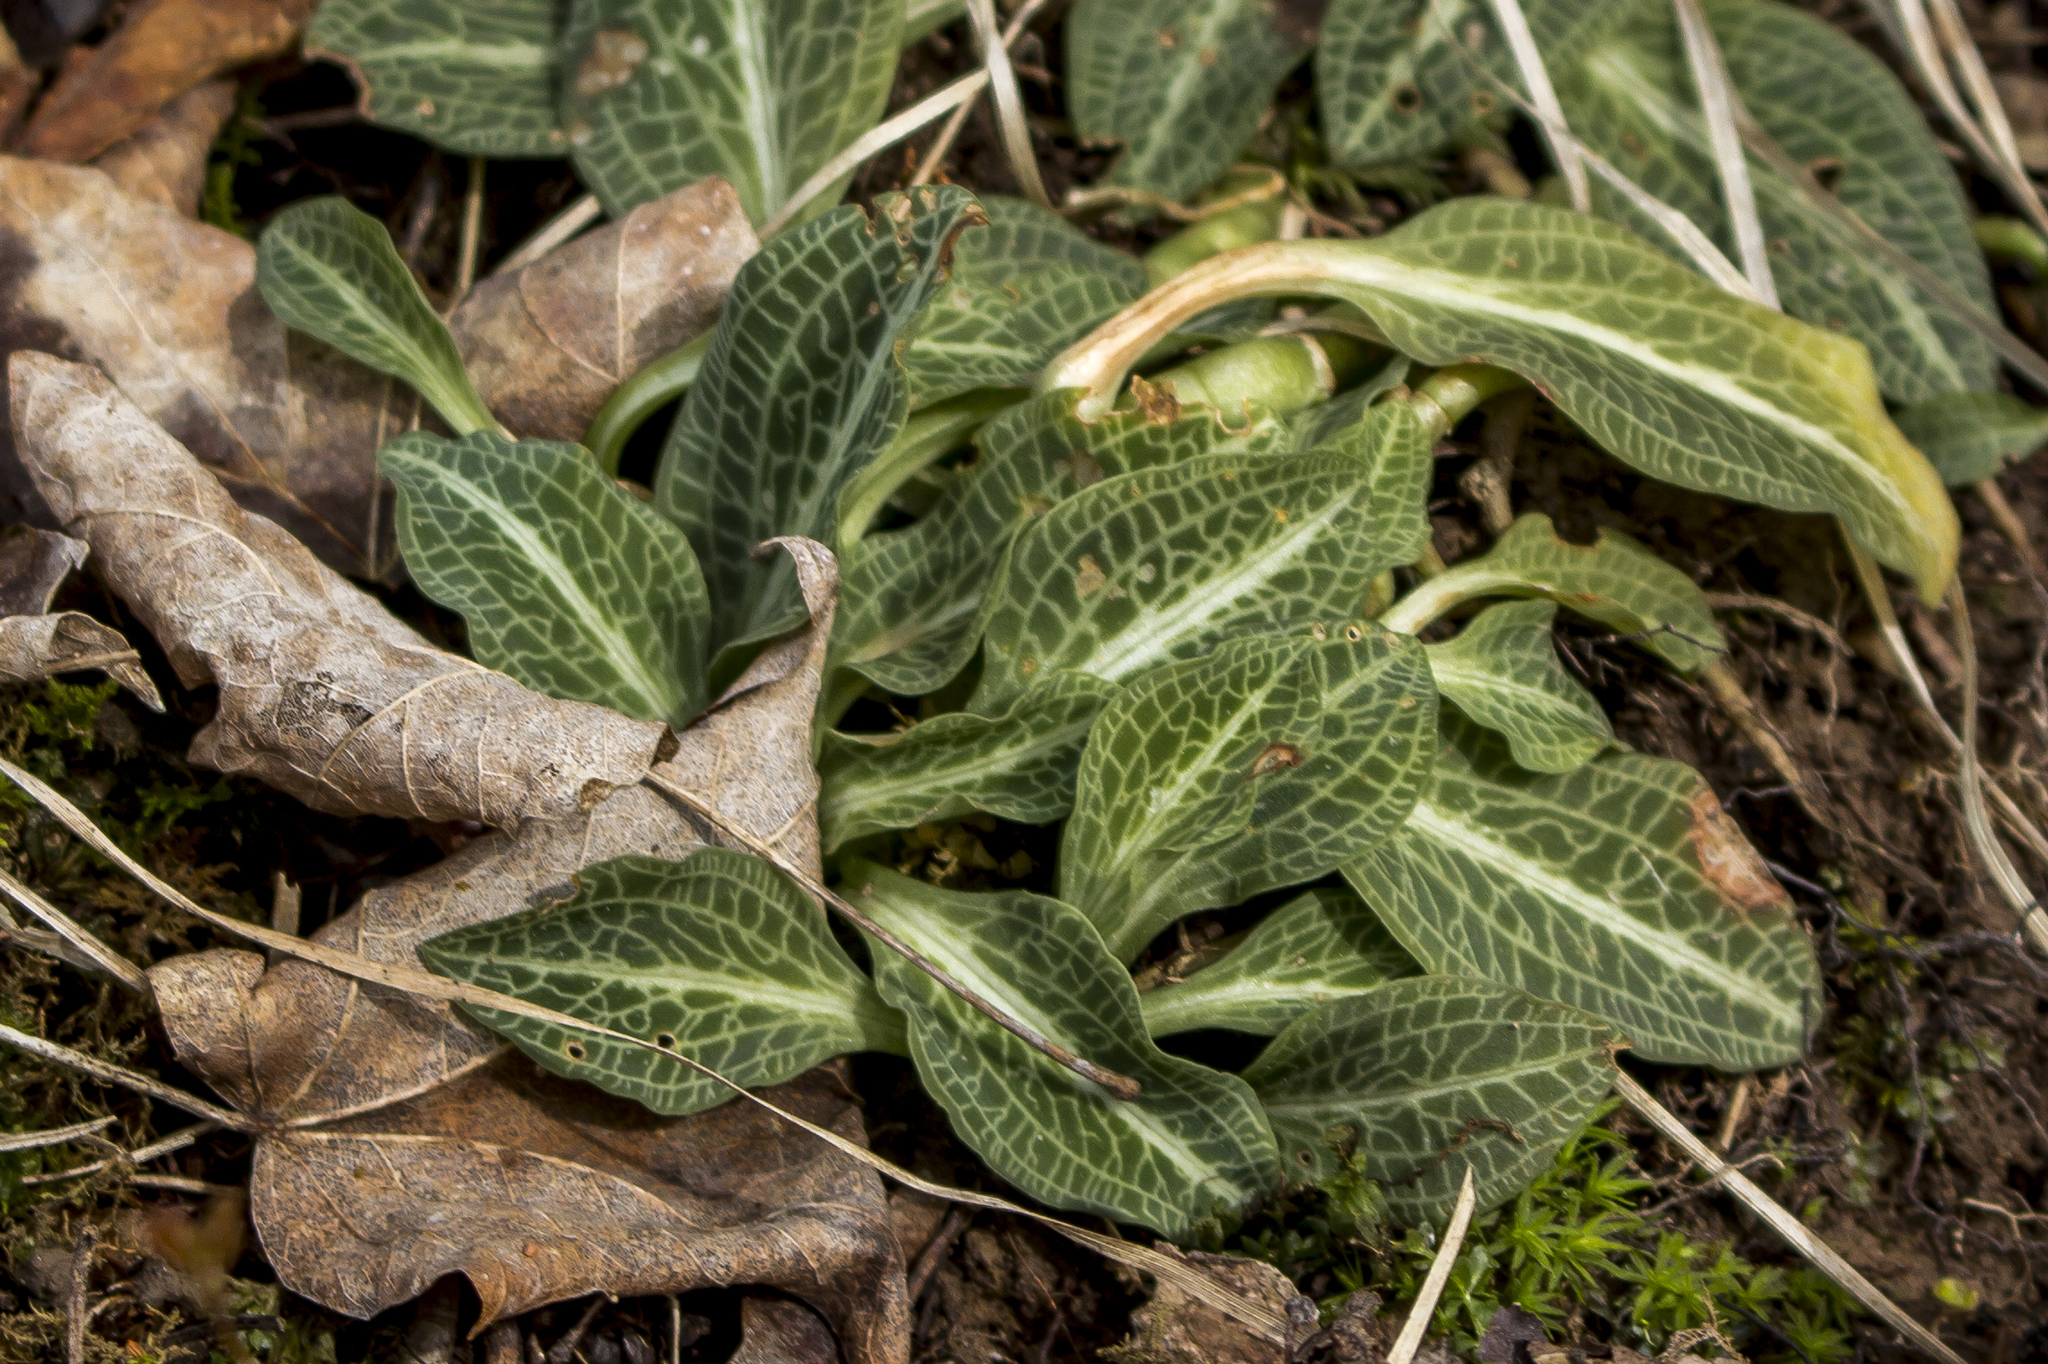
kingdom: Plantae
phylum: Tracheophyta
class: Liliopsida
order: Asparagales
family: Orchidaceae
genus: Goodyera
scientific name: Goodyera pubescens
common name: Downy rattlesnake-plantain
